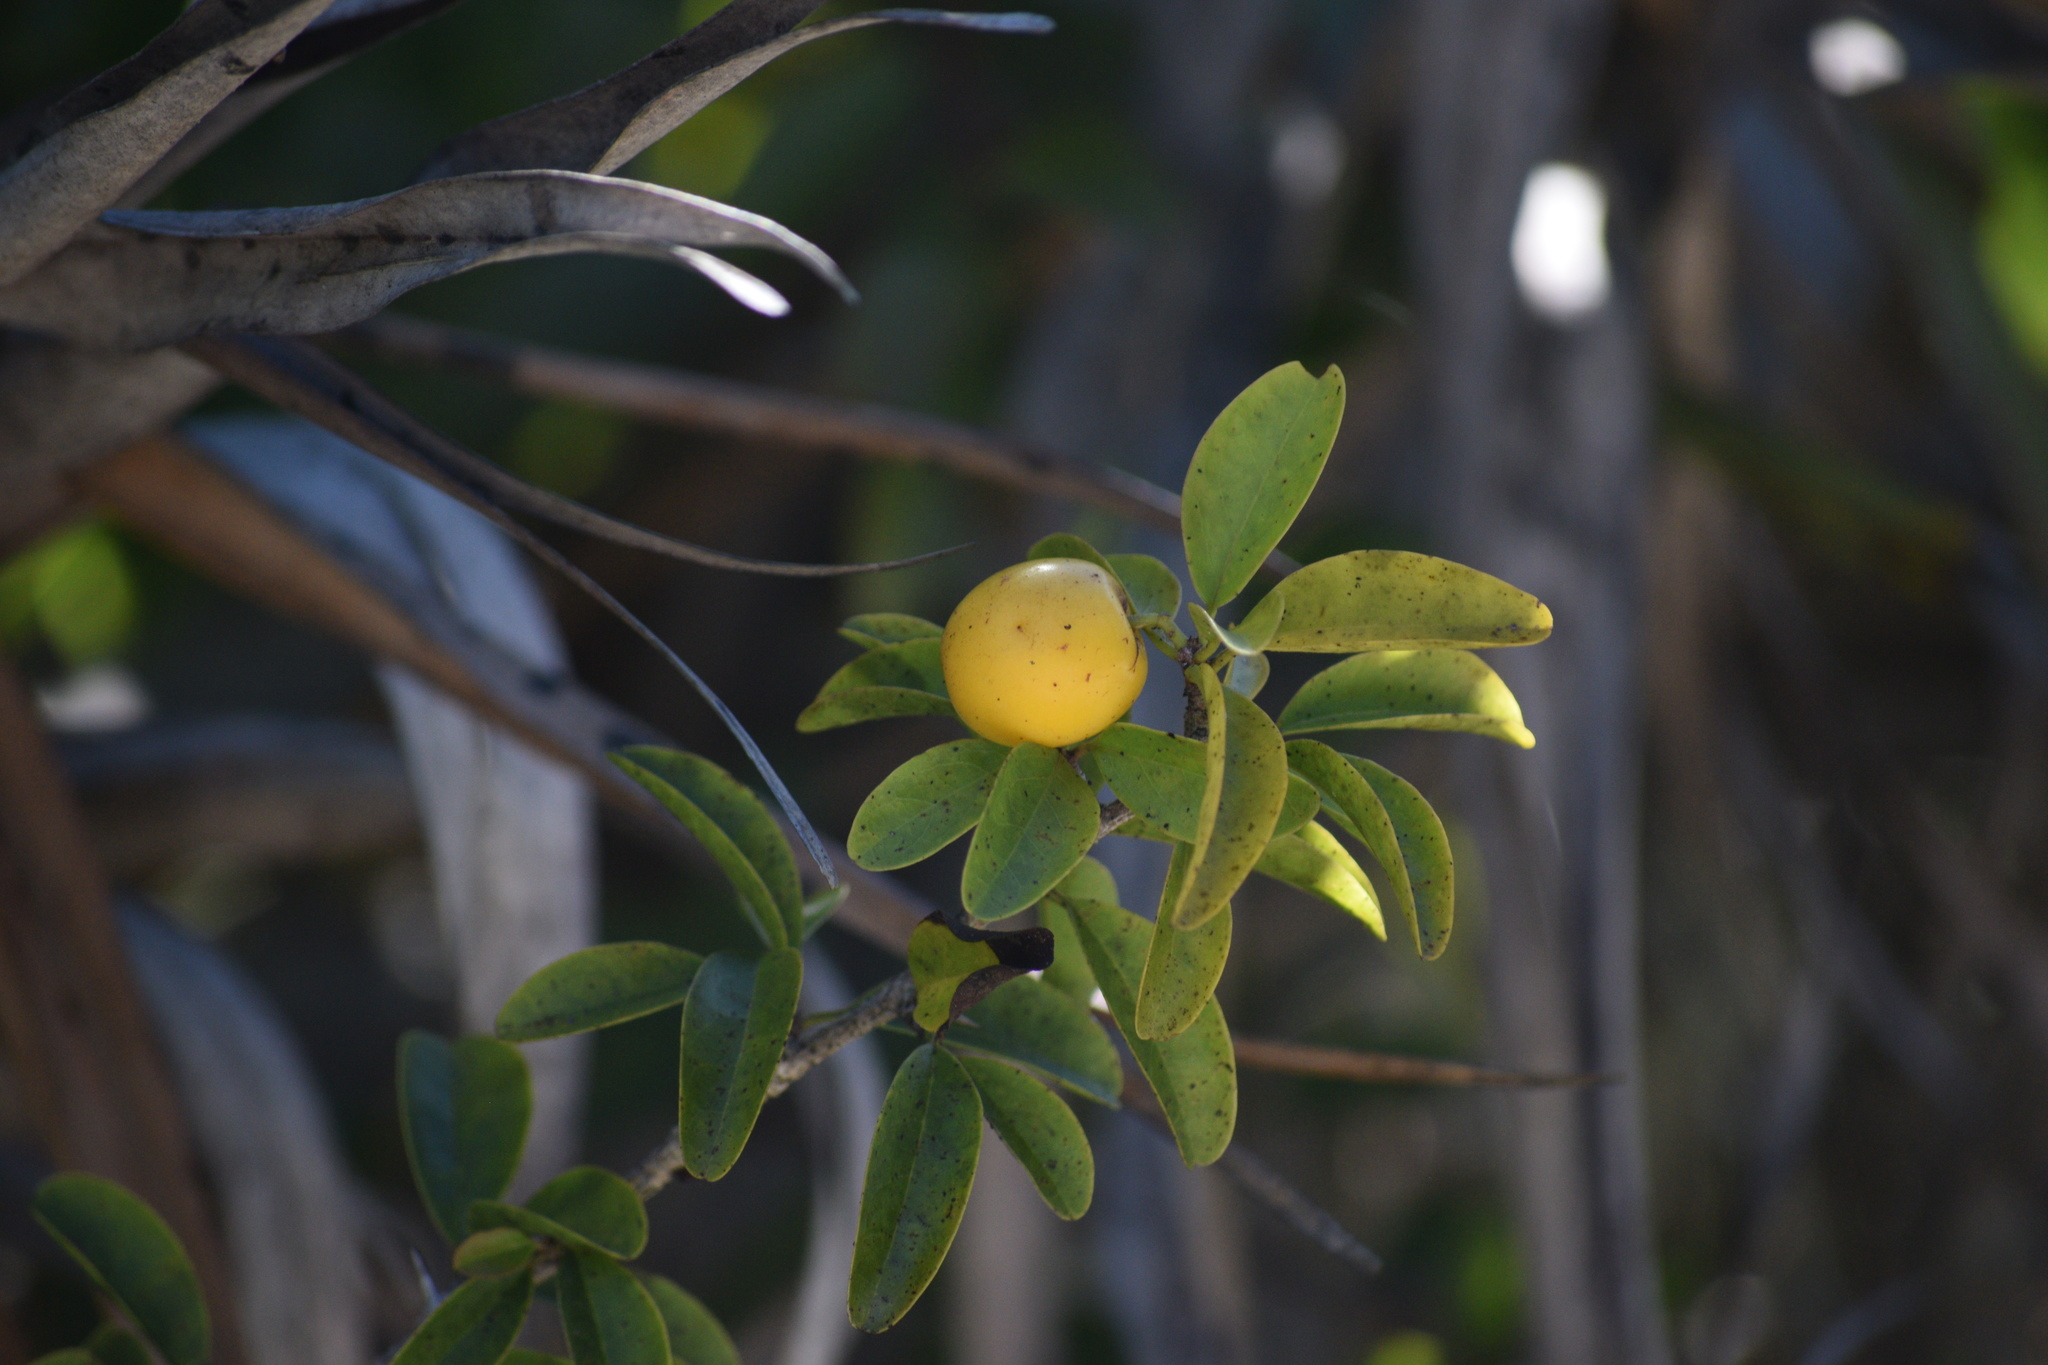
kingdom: Plantae
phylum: Tracheophyta
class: Magnoliopsida
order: Santalales
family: Ximeniaceae
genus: Ximenia
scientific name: Ximenia americana
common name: Tallowwood
